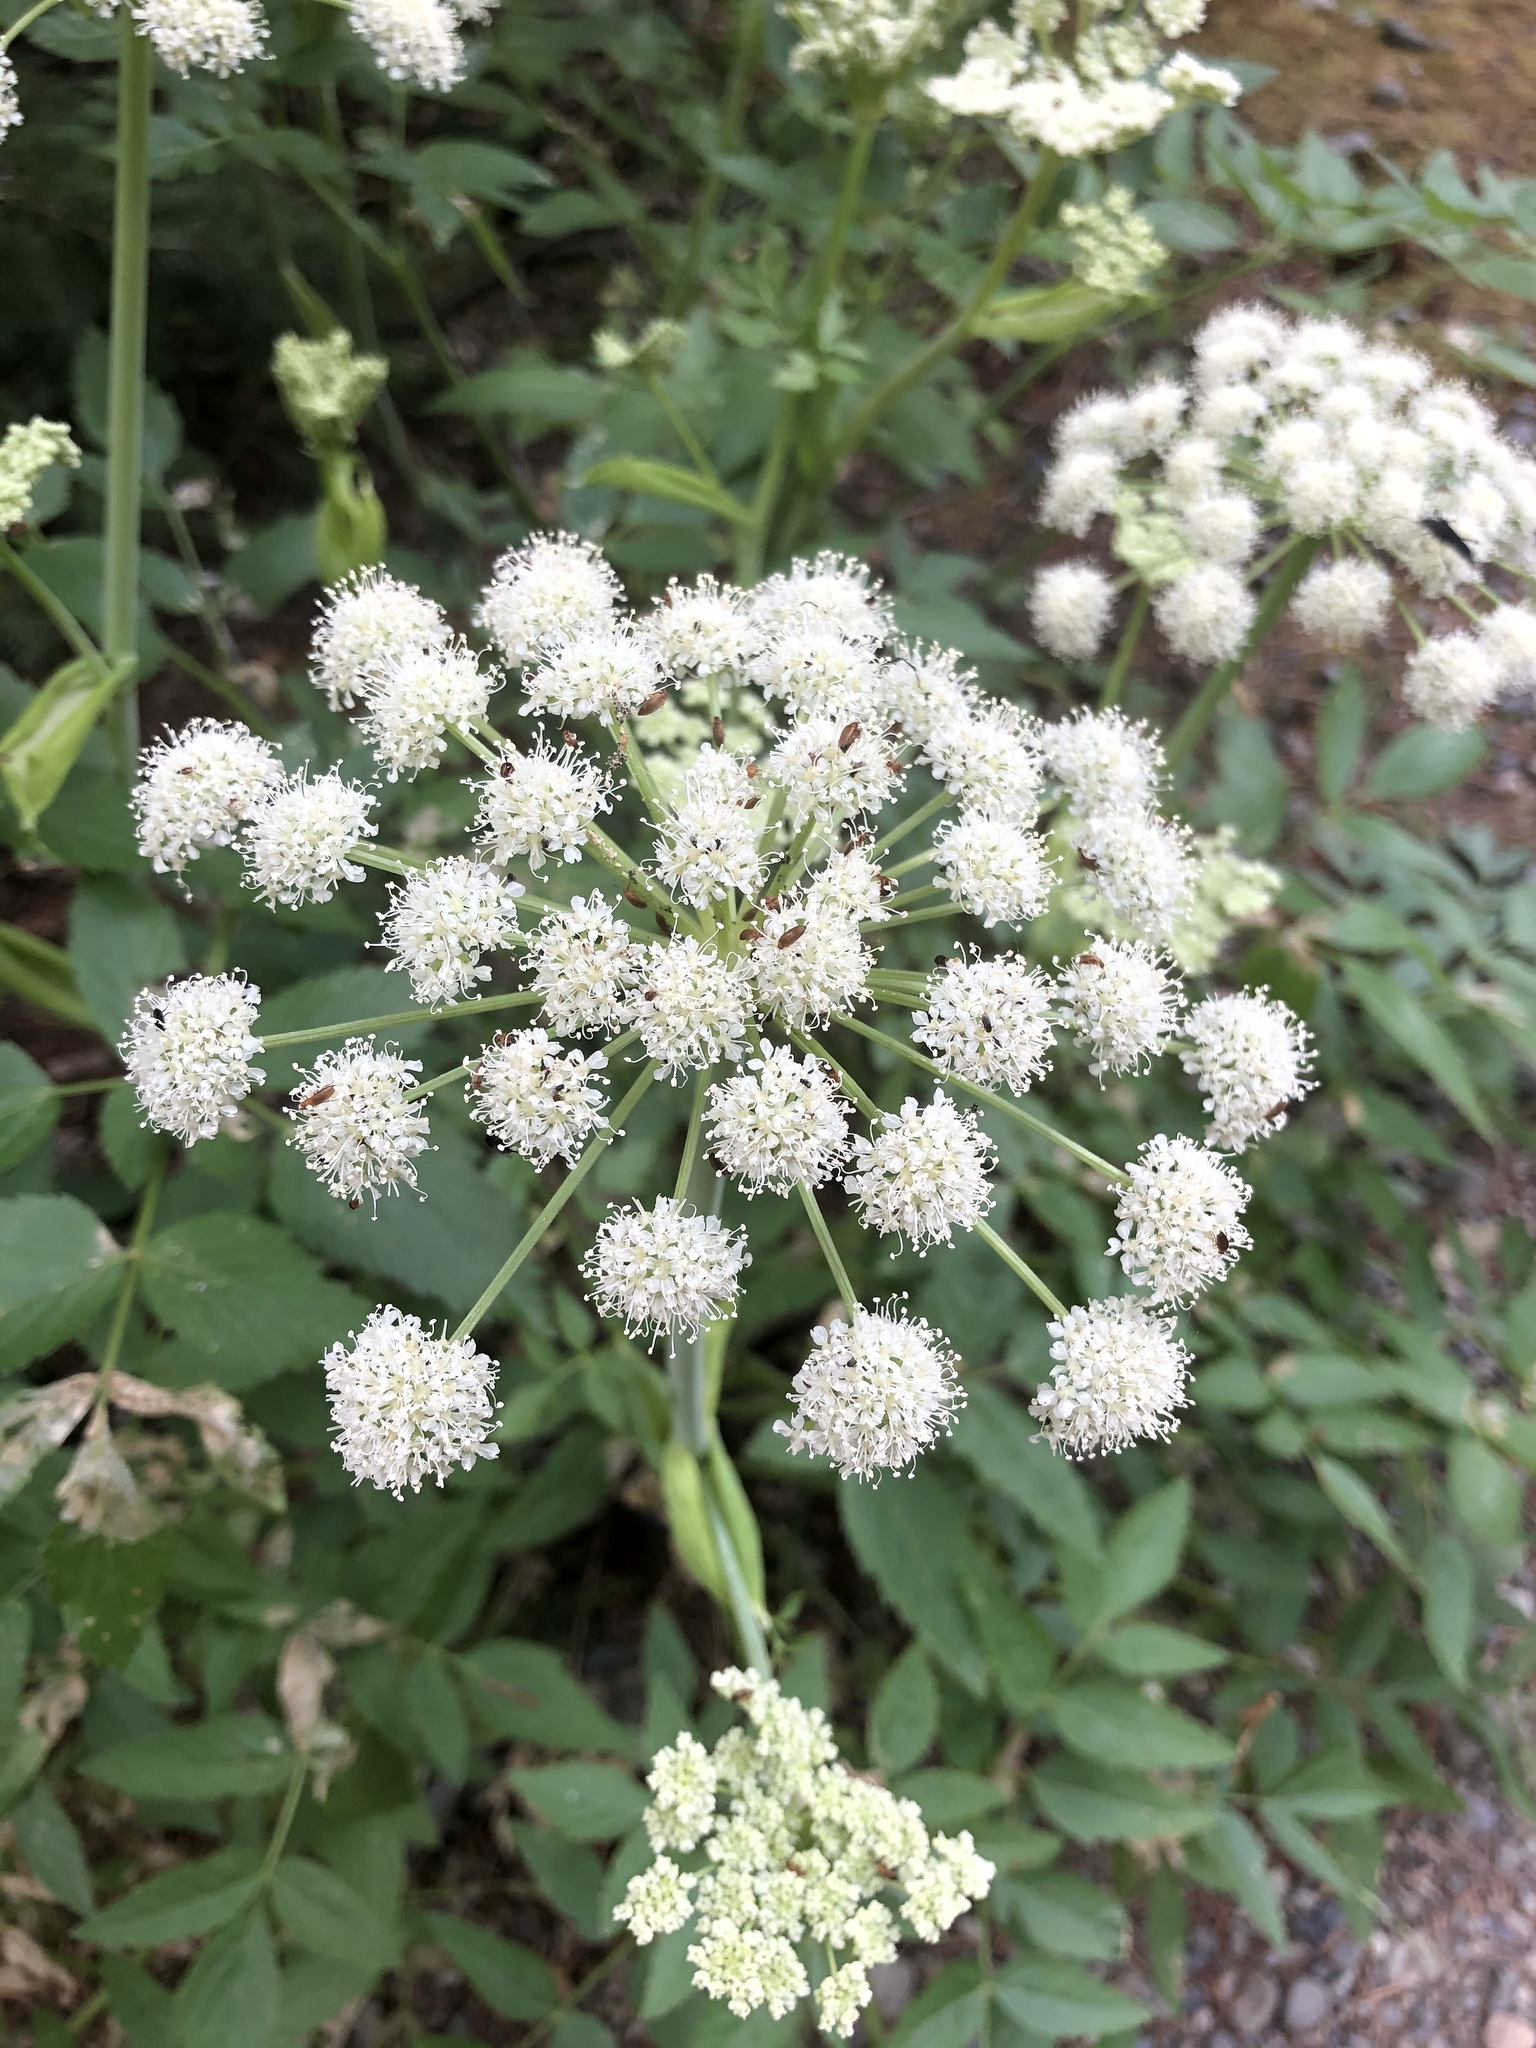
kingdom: Plantae
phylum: Tracheophyta
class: Magnoliopsida
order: Apiales
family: Apiaceae
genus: Angelica
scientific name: Angelica arguta
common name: Lyall's angelica
